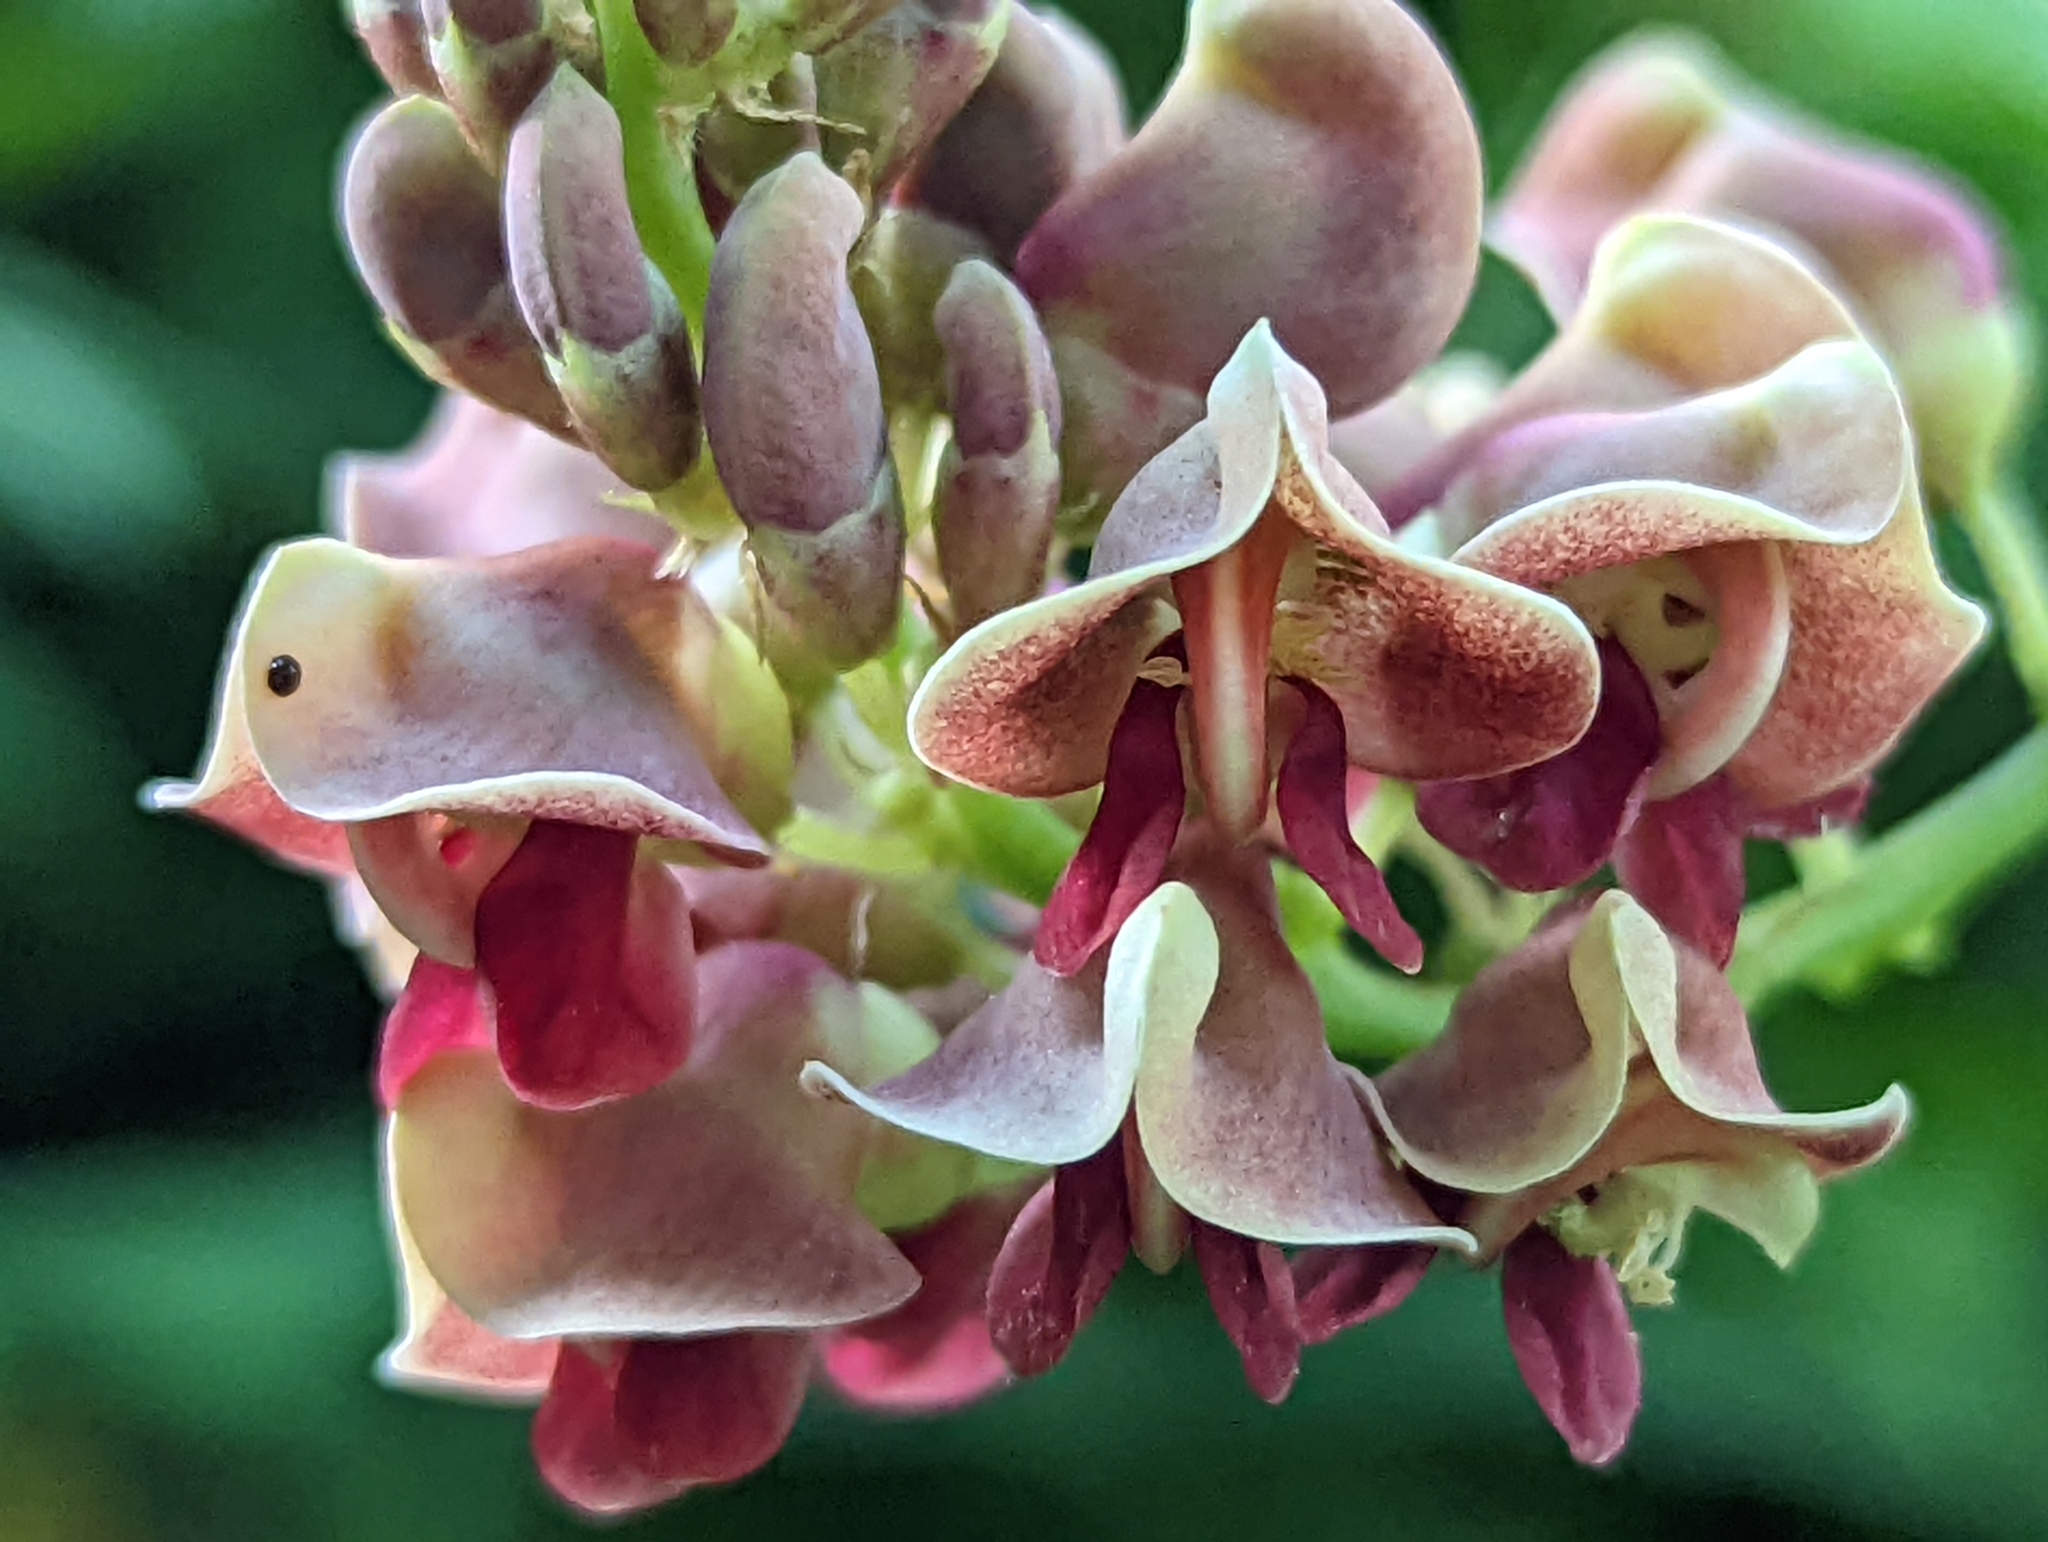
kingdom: Plantae
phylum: Tracheophyta
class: Magnoliopsida
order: Fabales
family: Fabaceae
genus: Apios
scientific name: Apios americana
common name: American potato-bean
